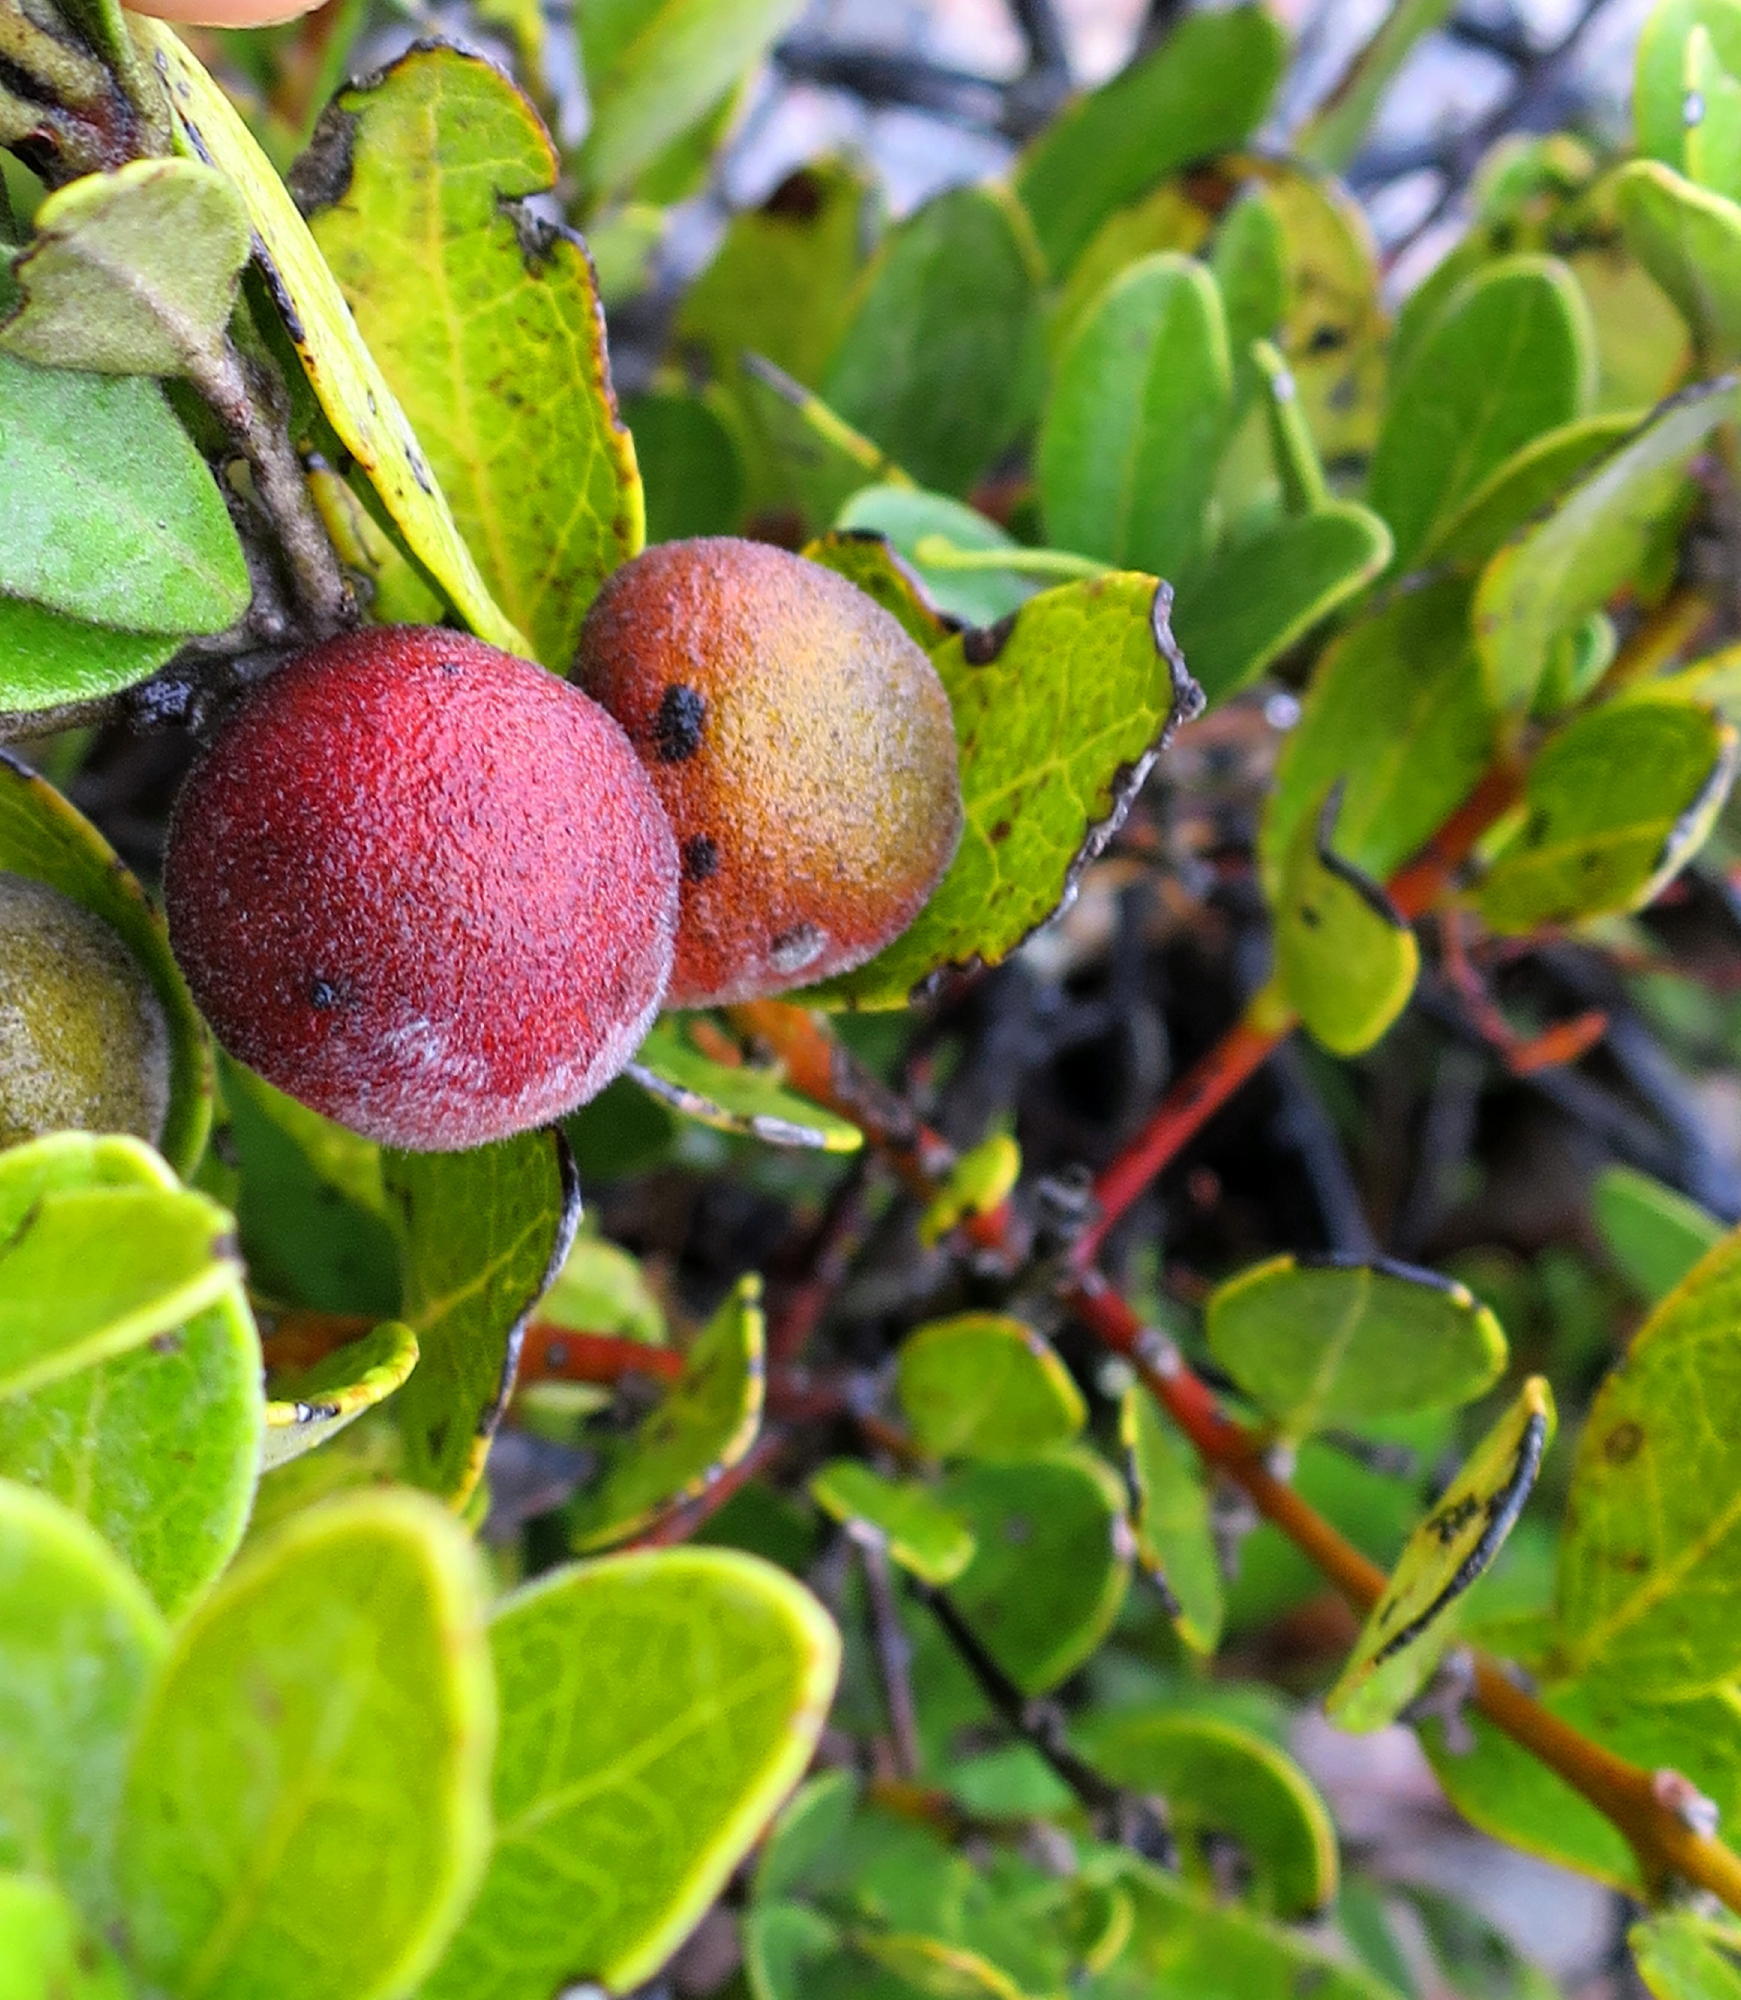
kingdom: Plantae
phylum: Tracheophyta
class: Magnoliopsida
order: Ericales
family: Ebenaceae
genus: Euclea
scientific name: Euclea polyandra
